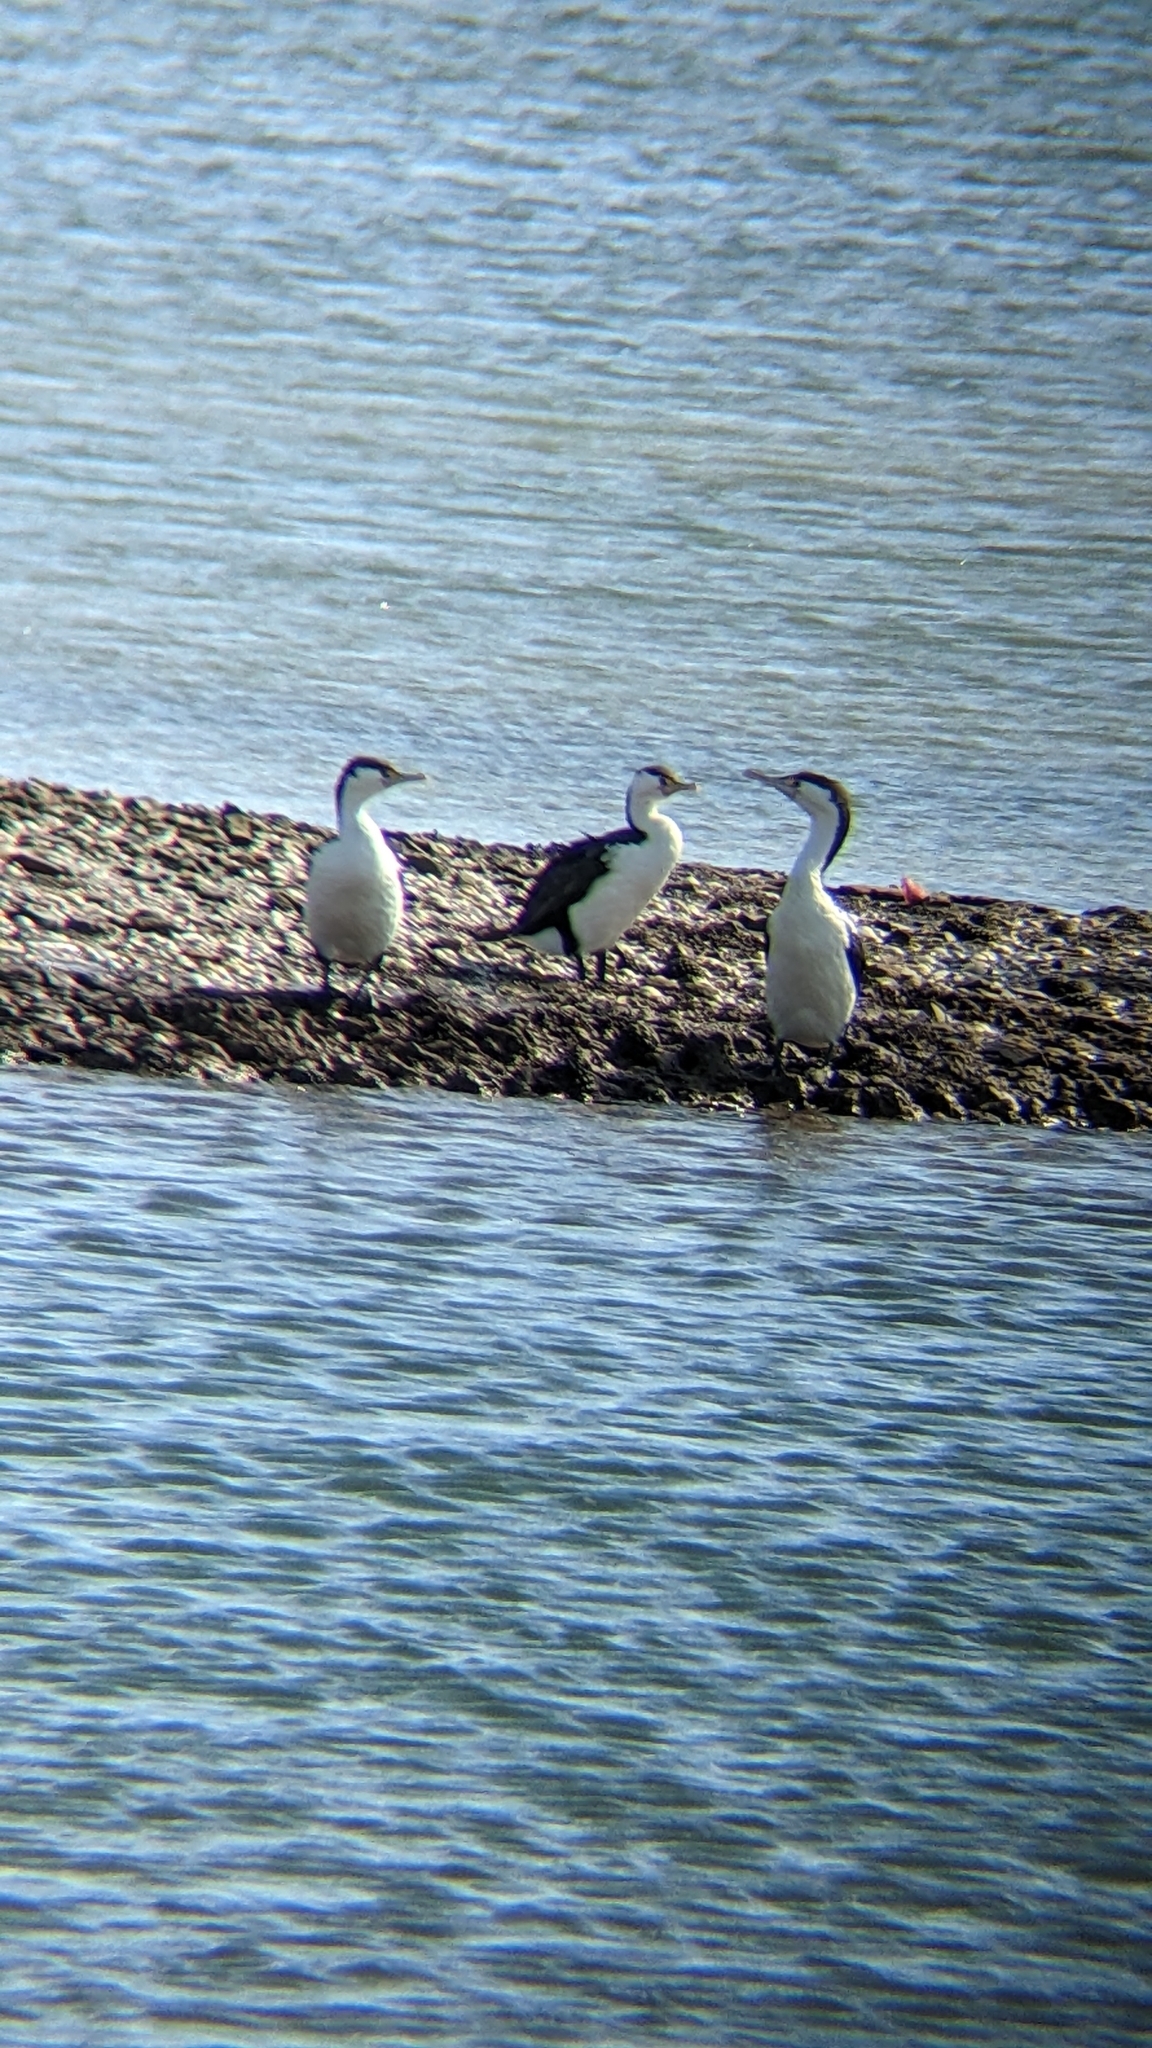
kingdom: Animalia
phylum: Chordata
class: Aves
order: Suliformes
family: Phalacrocoracidae
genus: Phalacrocorax
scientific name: Phalacrocorax varius
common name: Pied cormorant
